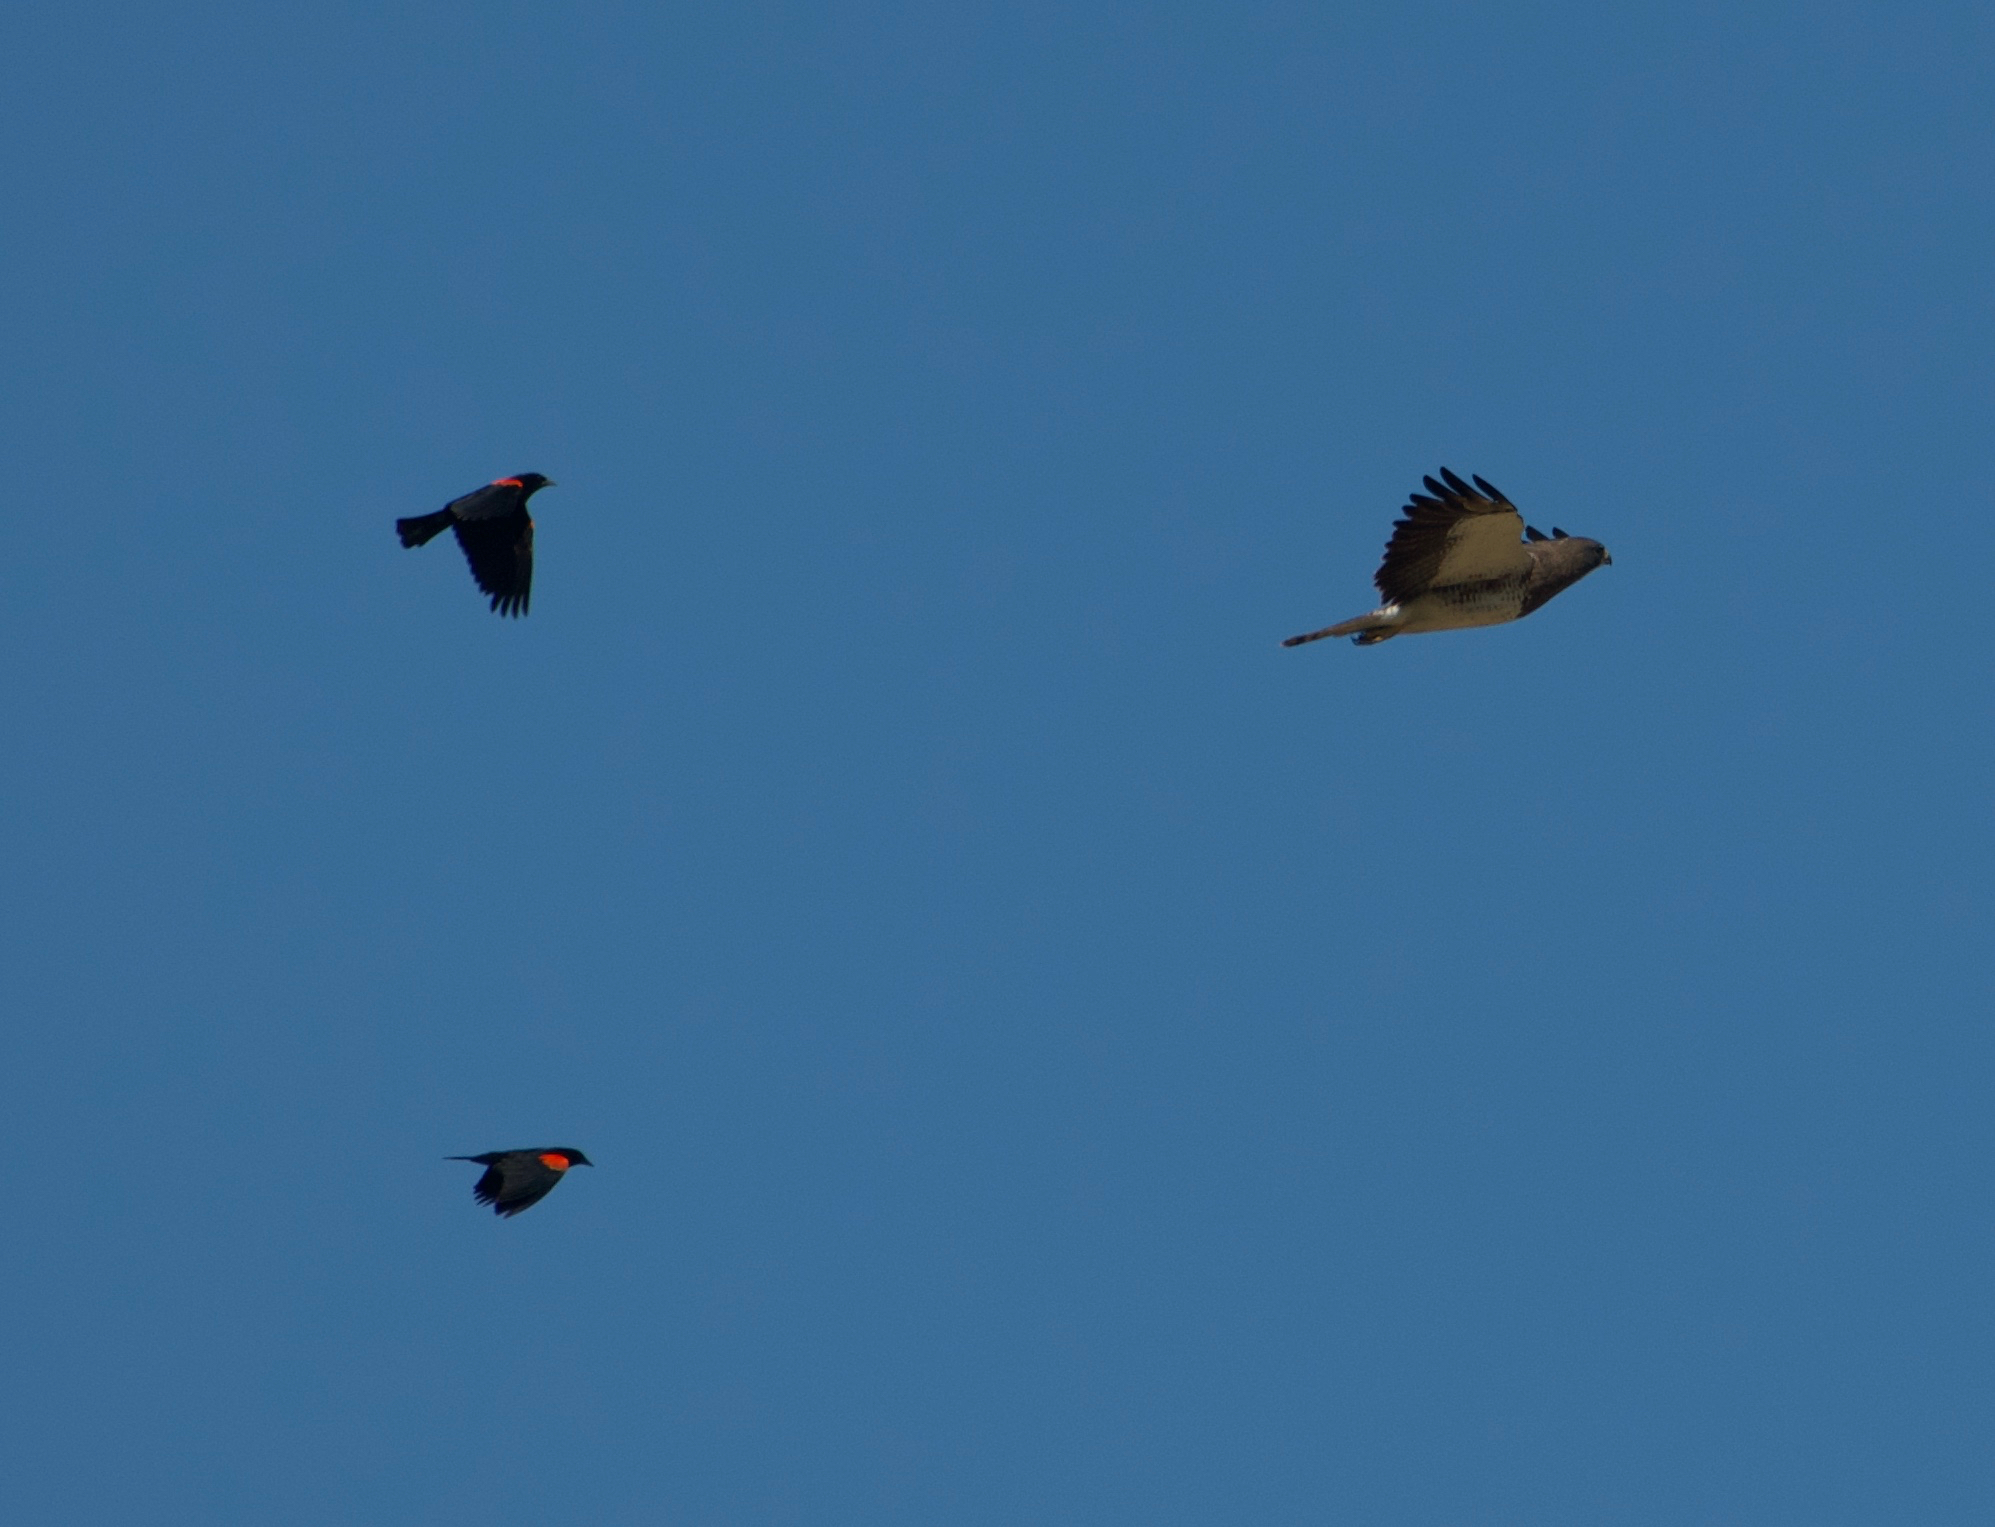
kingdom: Animalia
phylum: Chordata
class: Aves
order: Accipitriformes
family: Accipitridae
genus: Buteo
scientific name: Buteo swainsoni
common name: Swainson's hawk
